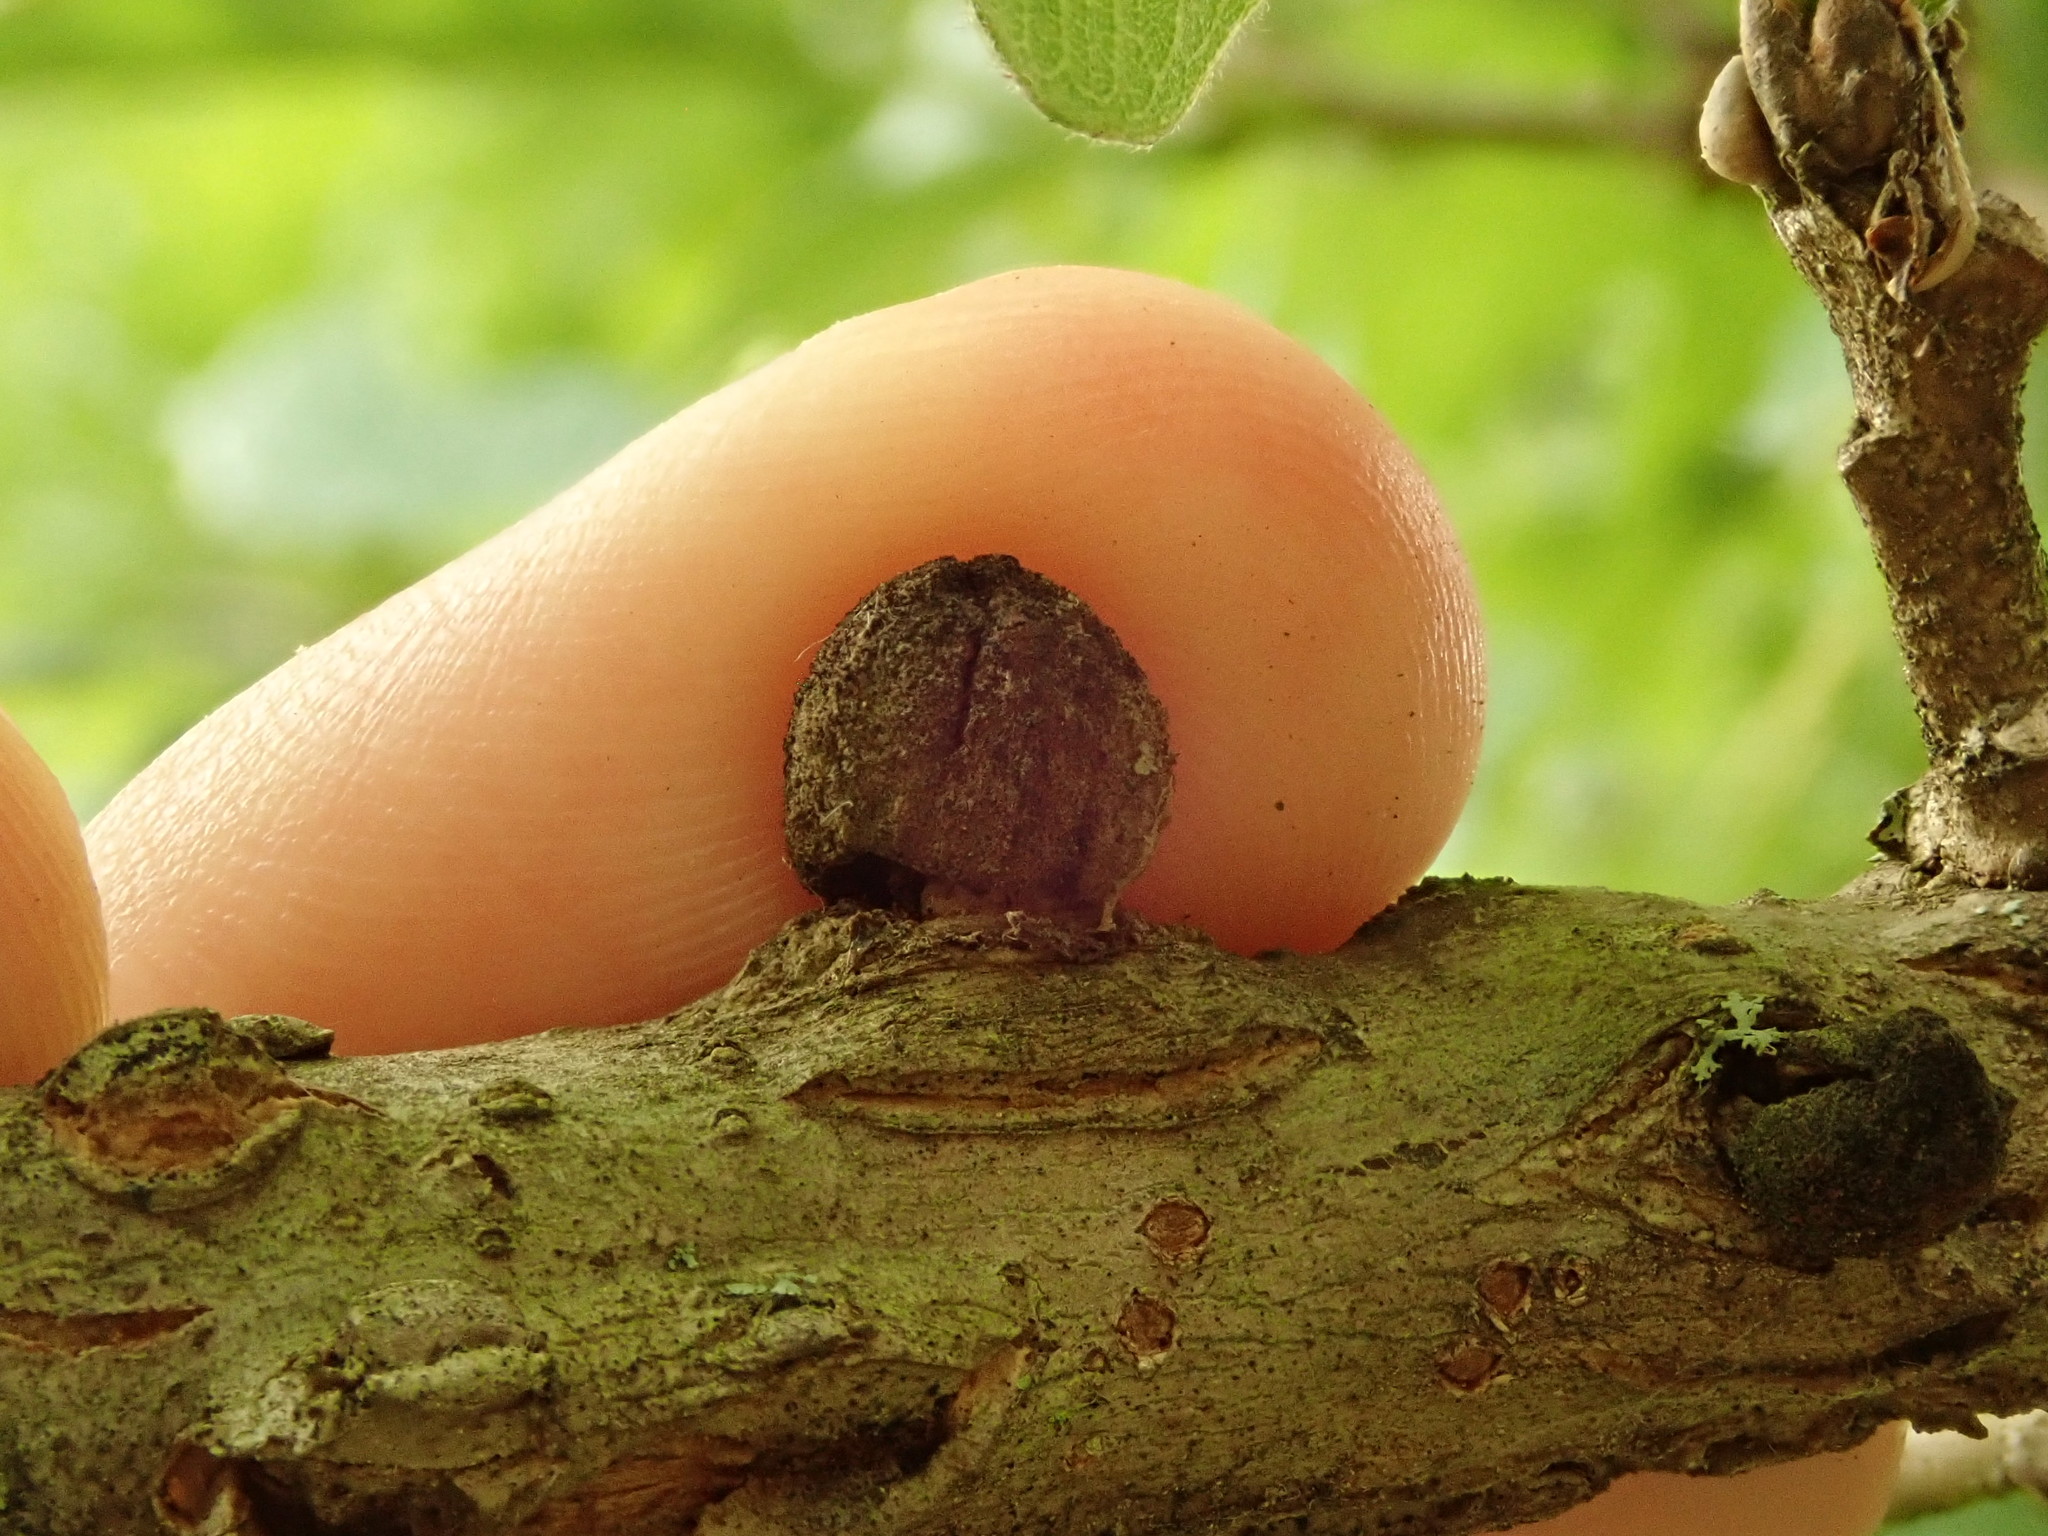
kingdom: Animalia
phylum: Arthropoda
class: Insecta
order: Hymenoptera
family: Cynipidae
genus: Disholcaspis
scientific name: Disholcaspis
